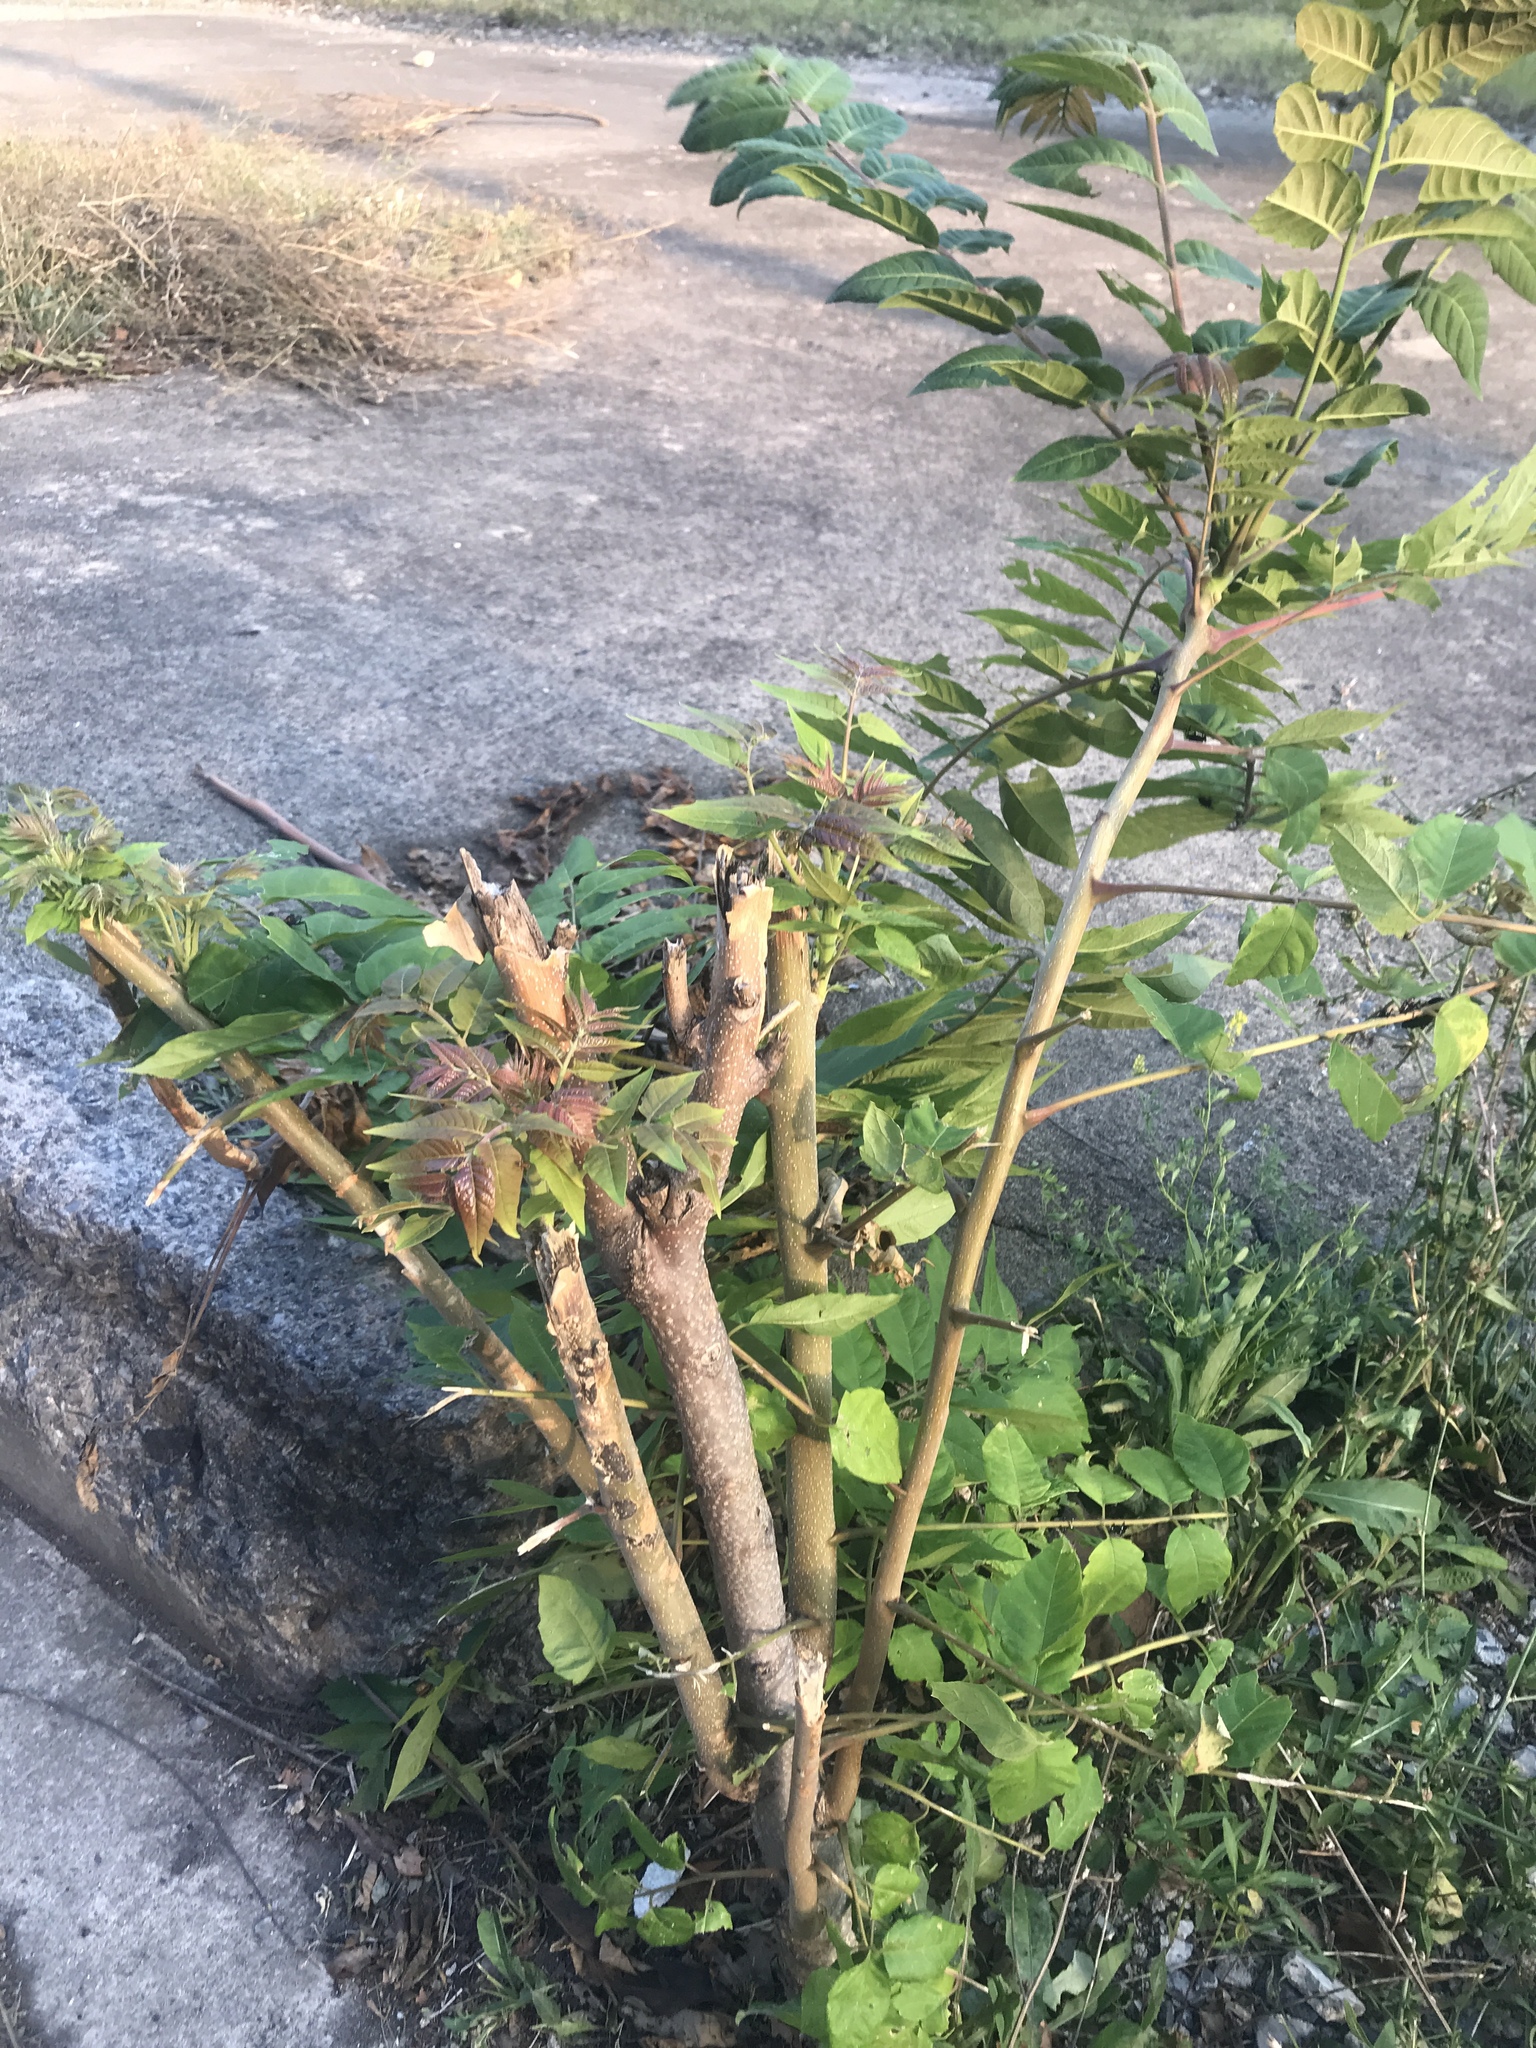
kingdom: Plantae
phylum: Tracheophyta
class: Magnoliopsida
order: Sapindales
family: Simaroubaceae
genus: Ailanthus
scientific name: Ailanthus altissima
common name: Tree-of-heaven
